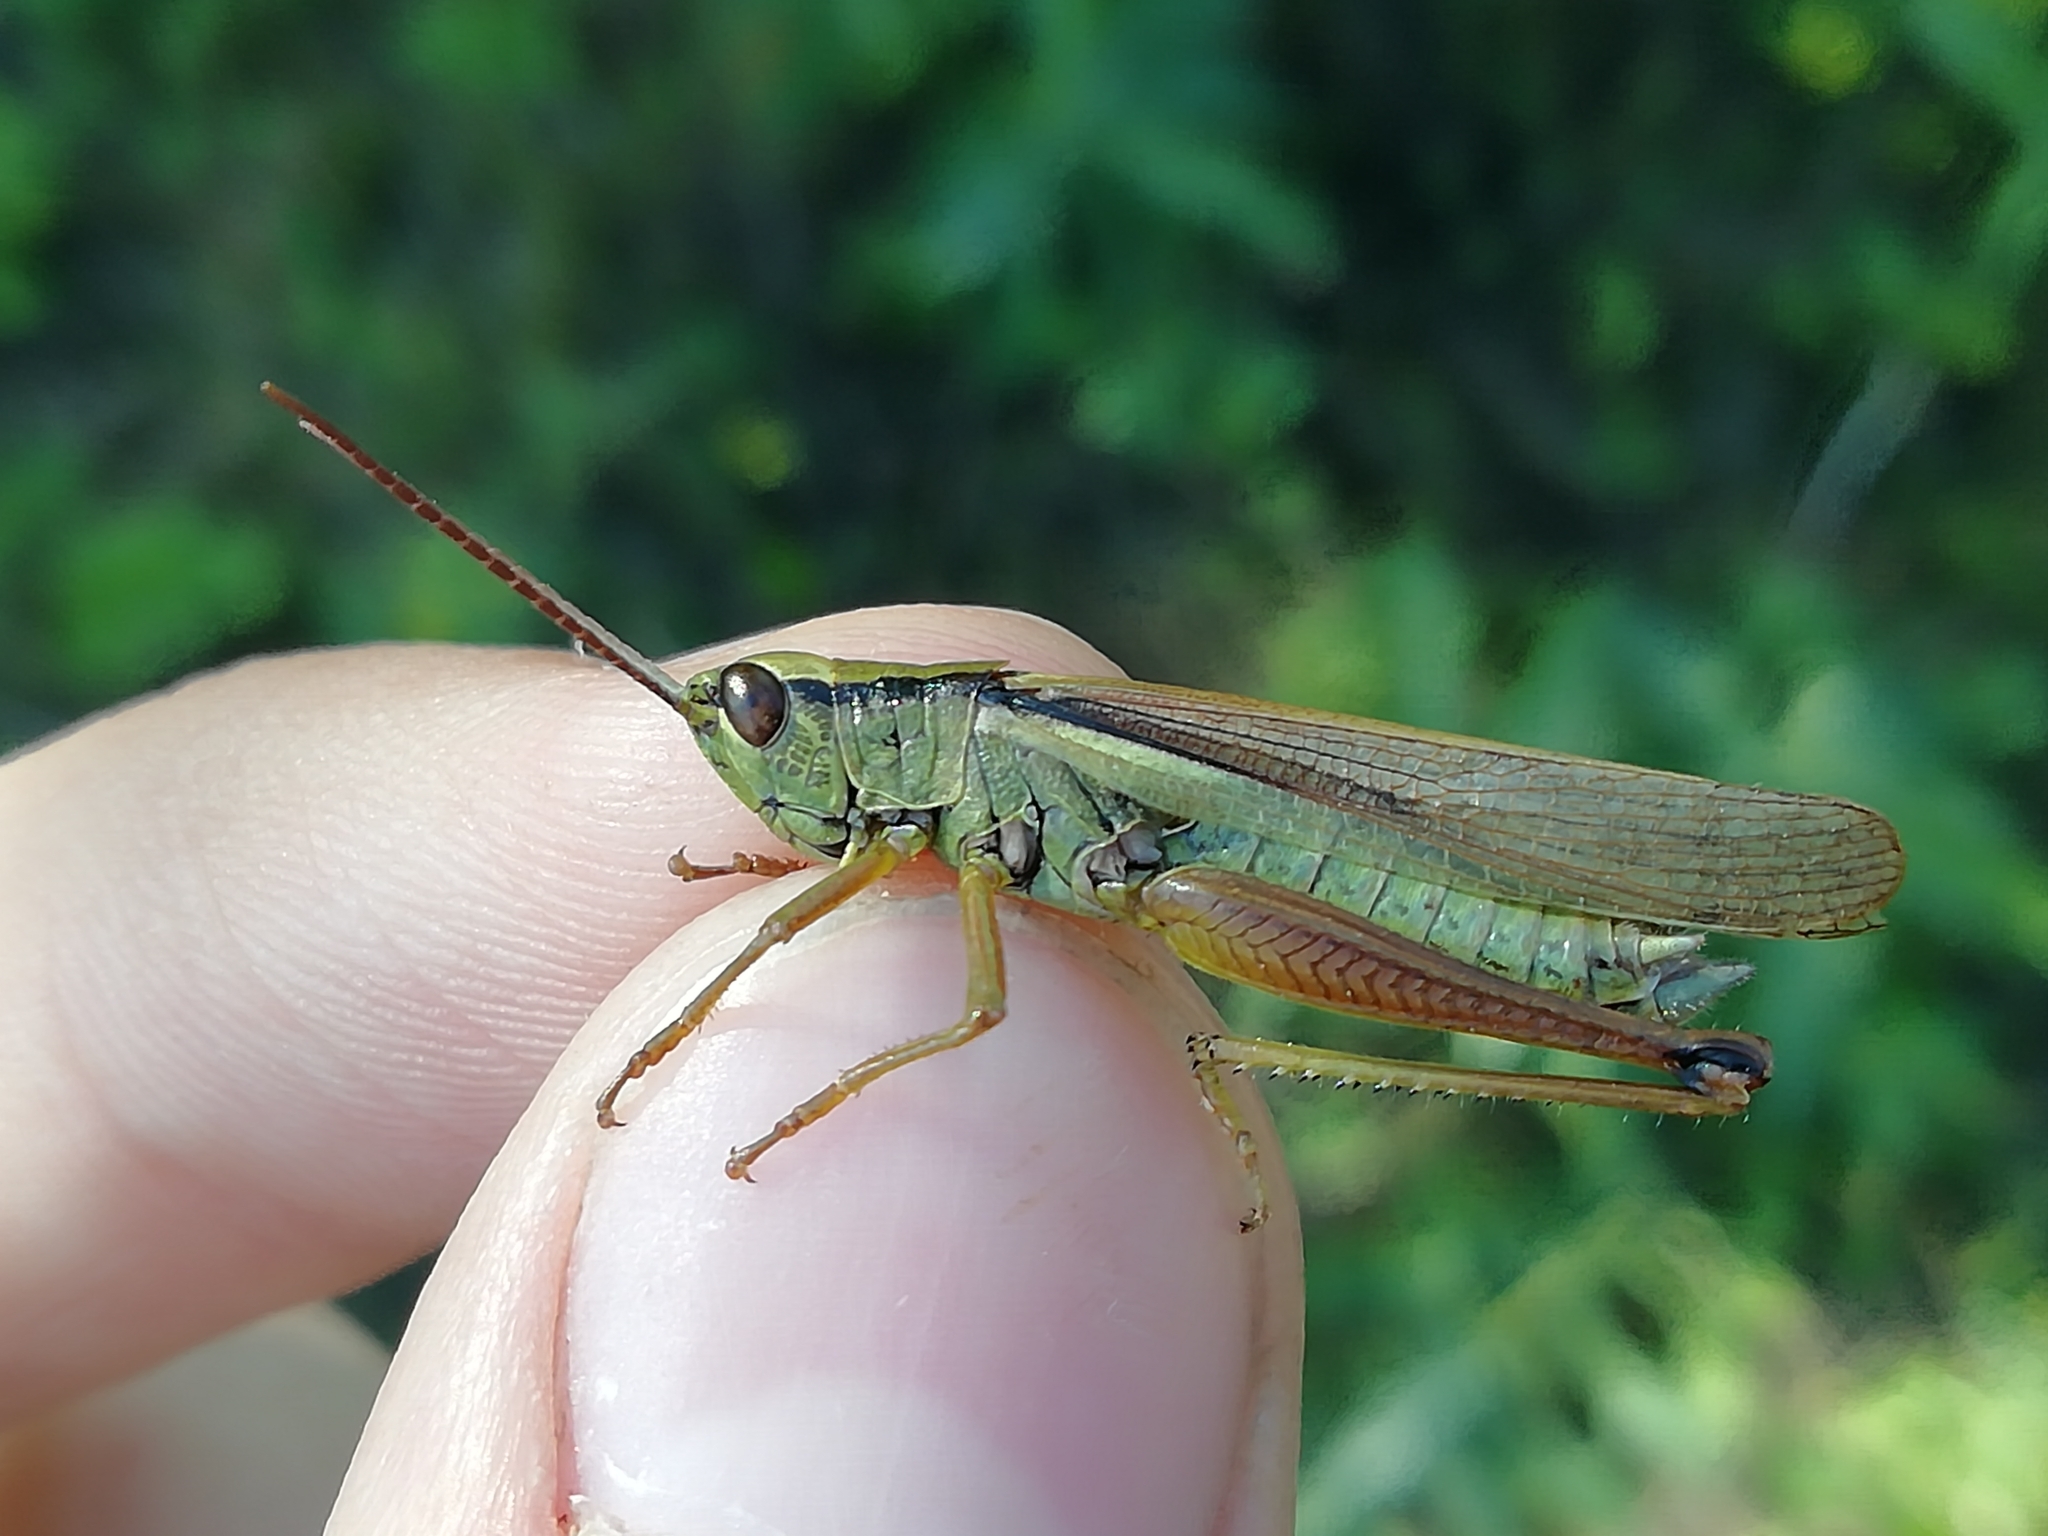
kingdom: Animalia
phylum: Arthropoda
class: Insecta
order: Orthoptera
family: Acrididae
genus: Mecostethus
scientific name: Mecostethus parapleurus
